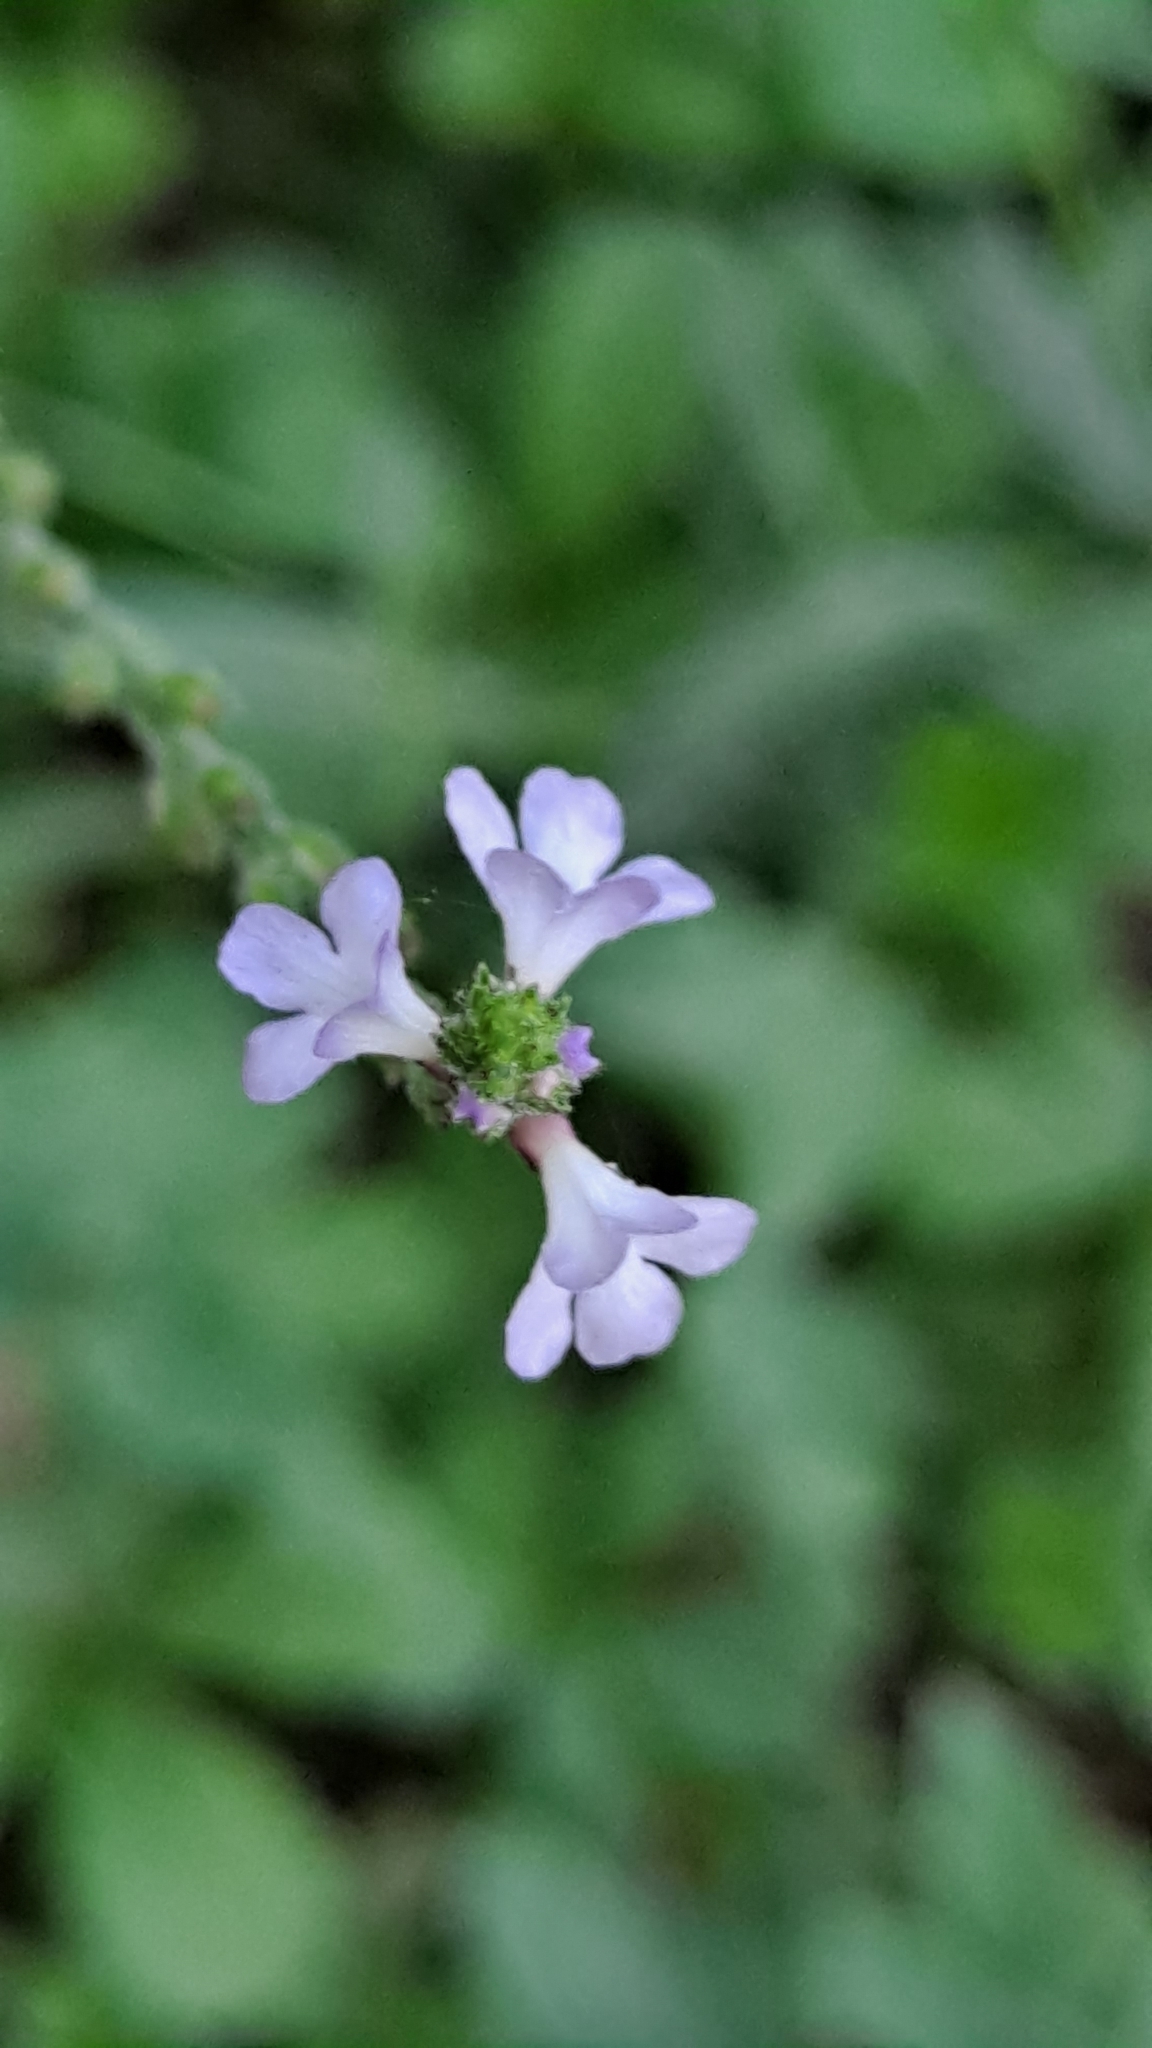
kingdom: Plantae
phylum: Tracheophyta
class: Magnoliopsida
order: Lamiales
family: Verbenaceae
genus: Verbena
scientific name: Verbena officinalis
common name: Vervain
